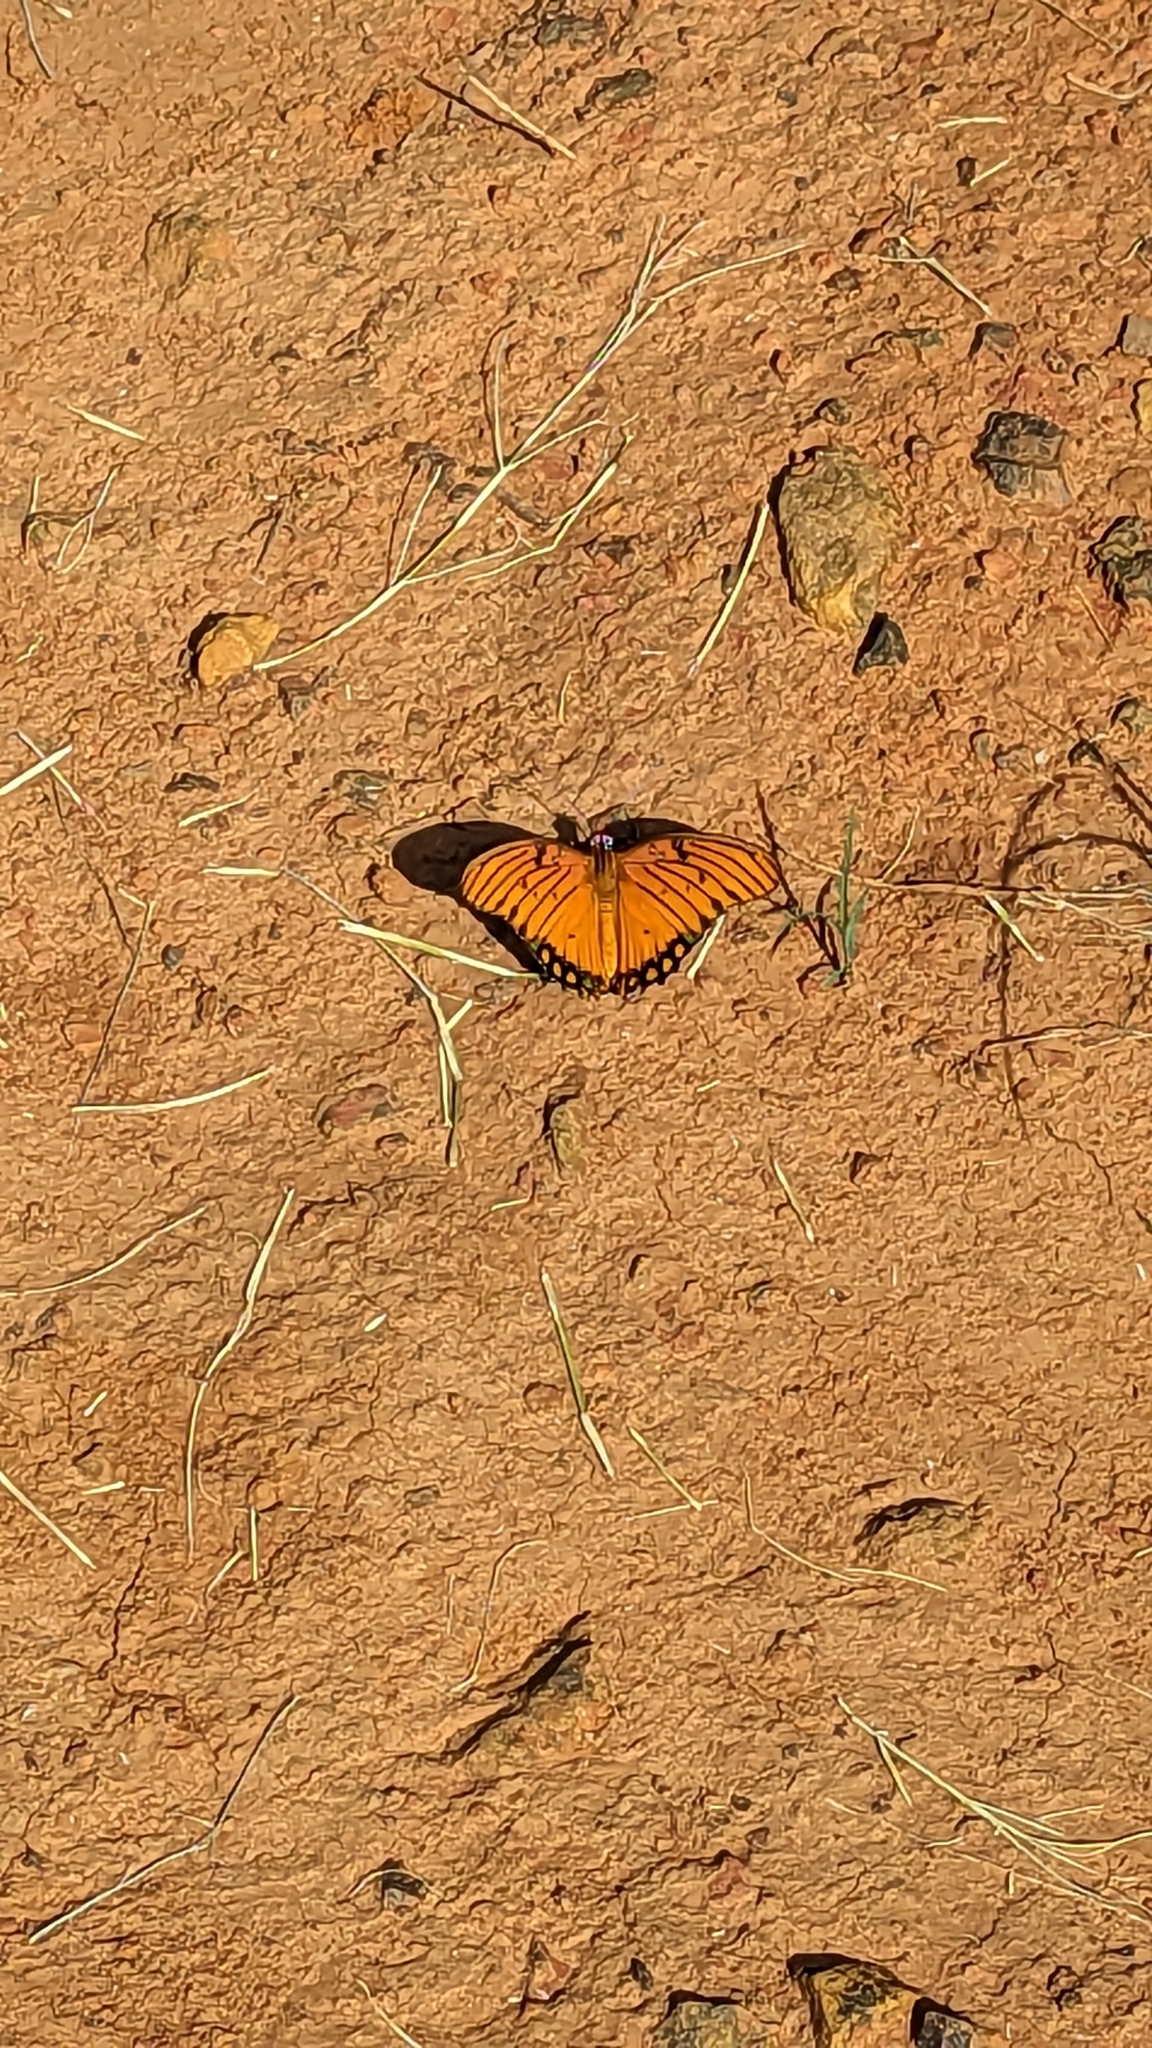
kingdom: Animalia
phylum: Arthropoda
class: Insecta
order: Lepidoptera
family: Nymphalidae
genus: Dione
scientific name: Dione vanillae
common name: Gulf fritillary
